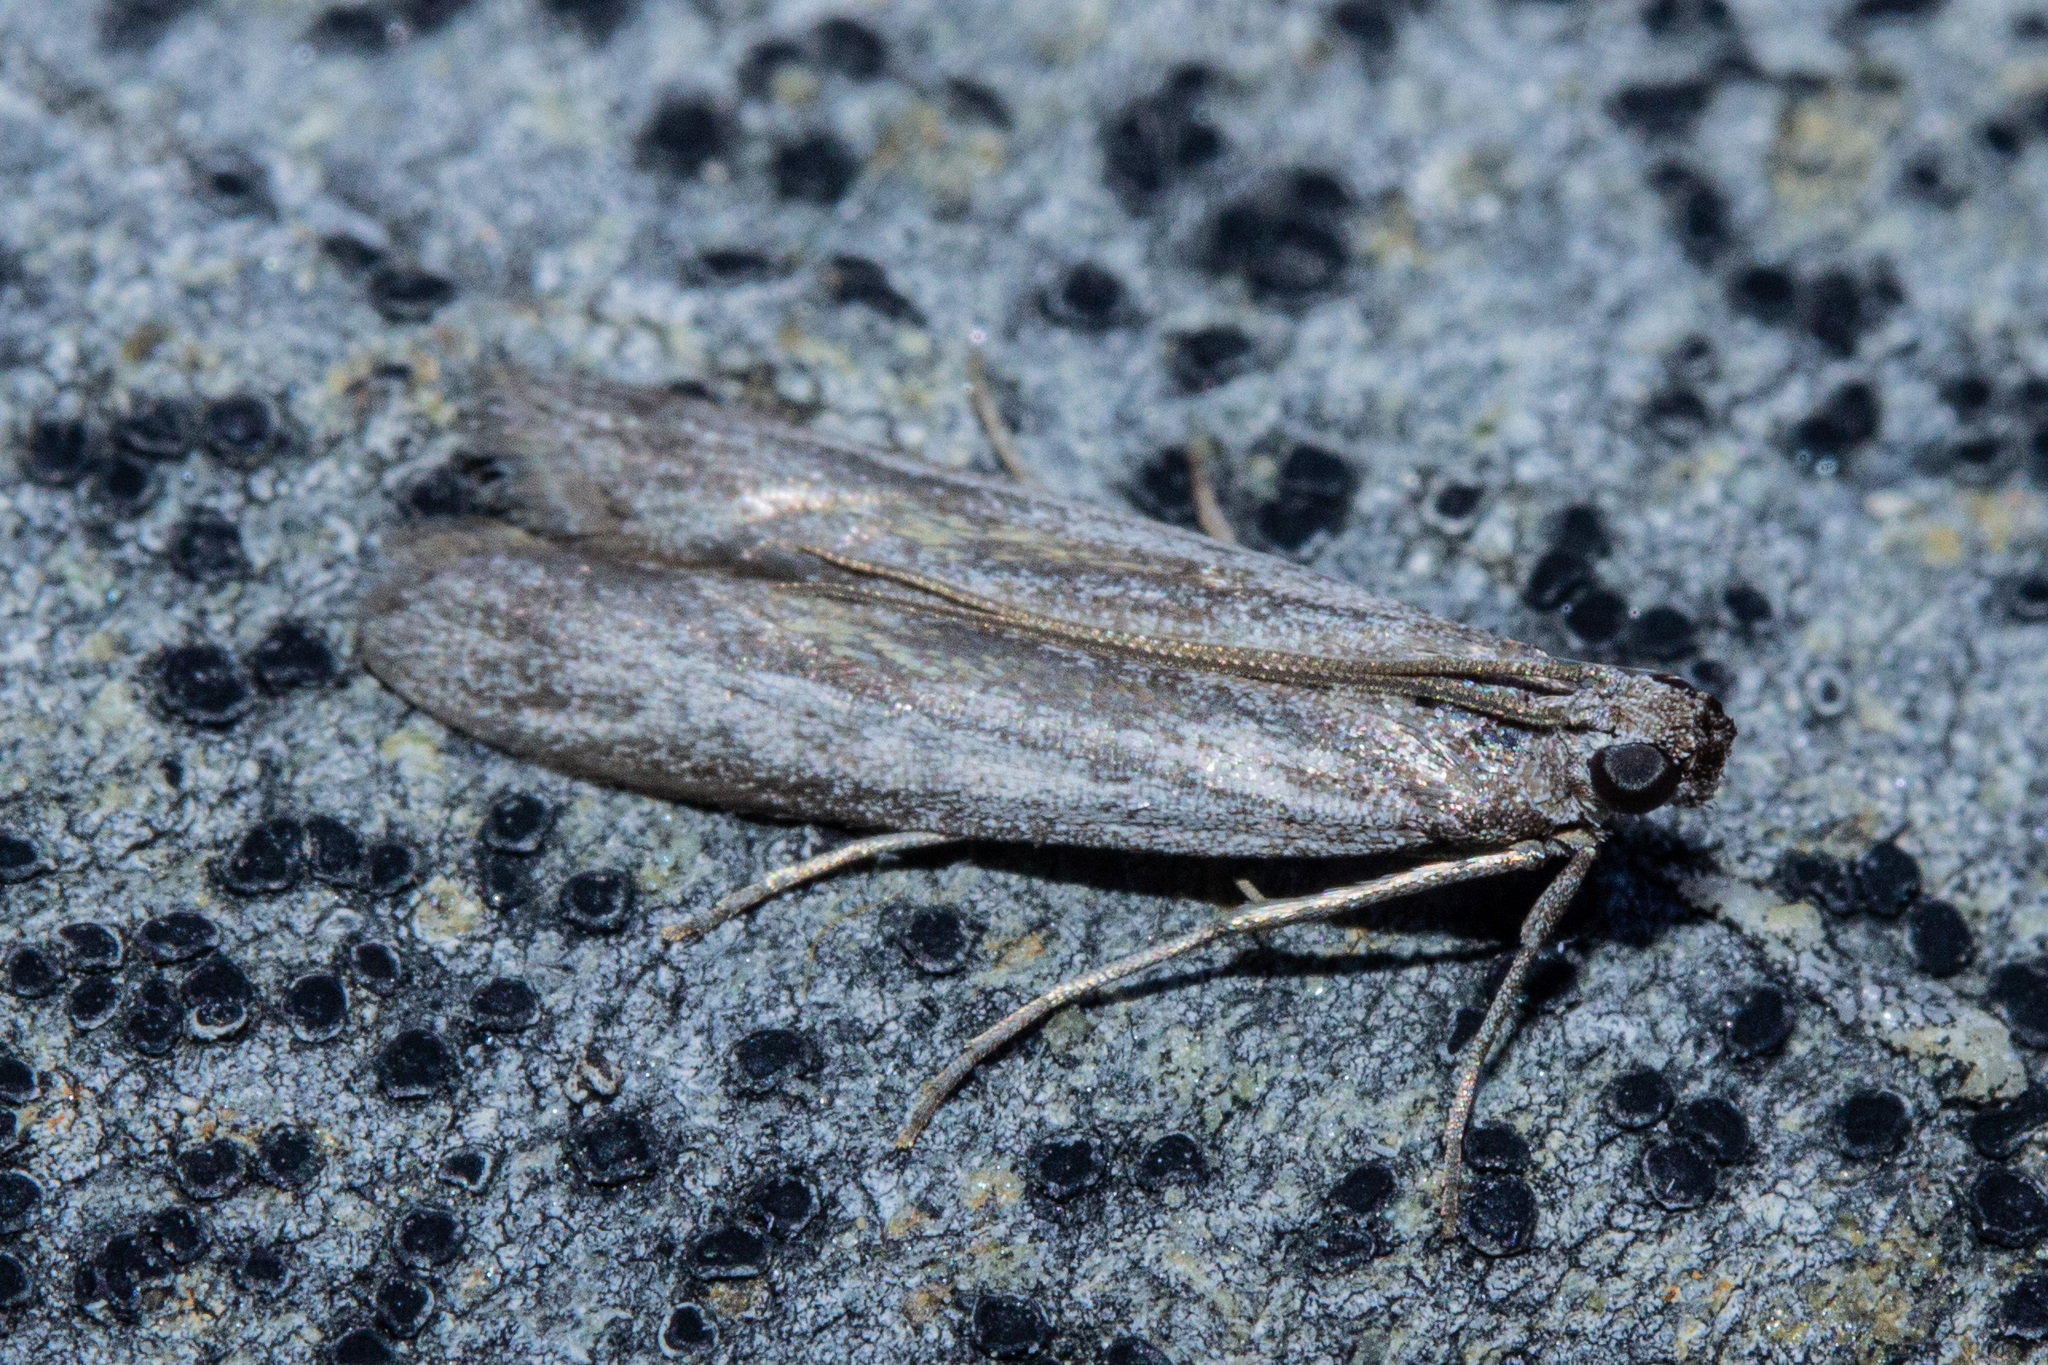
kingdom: Animalia
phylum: Arthropoda
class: Insecta
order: Lepidoptera
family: Pyralidae
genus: Homoeosoma
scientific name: Homoeosoma anaspila
